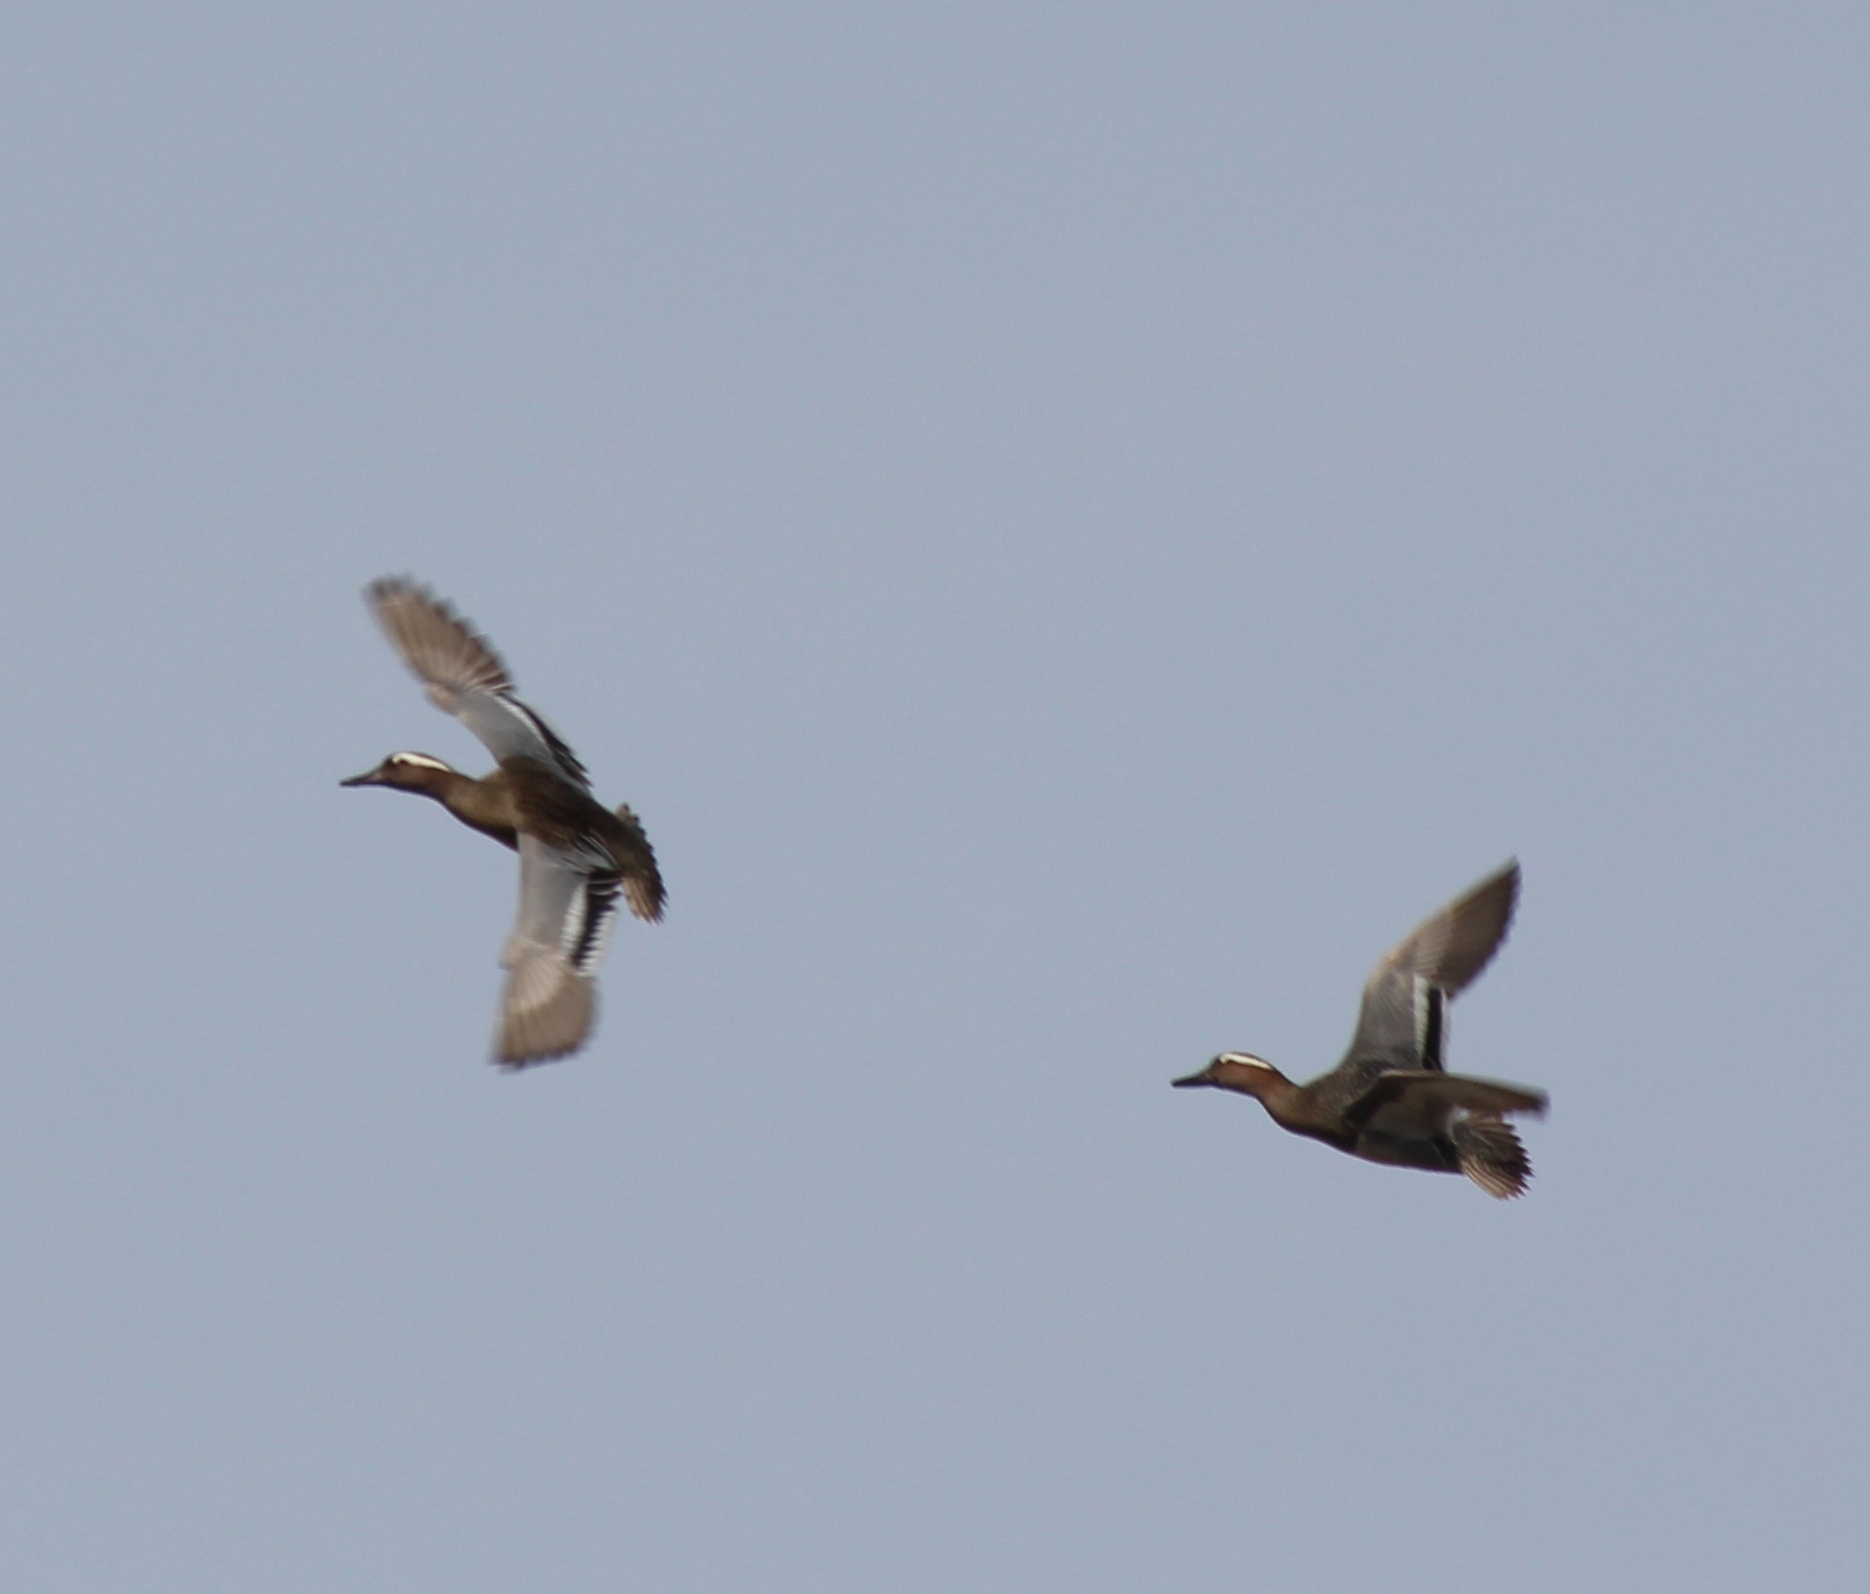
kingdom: Animalia
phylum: Chordata
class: Aves
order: Anseriformes
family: Anatidae
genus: Spatula
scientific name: Spatula querquedula
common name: Garganey
